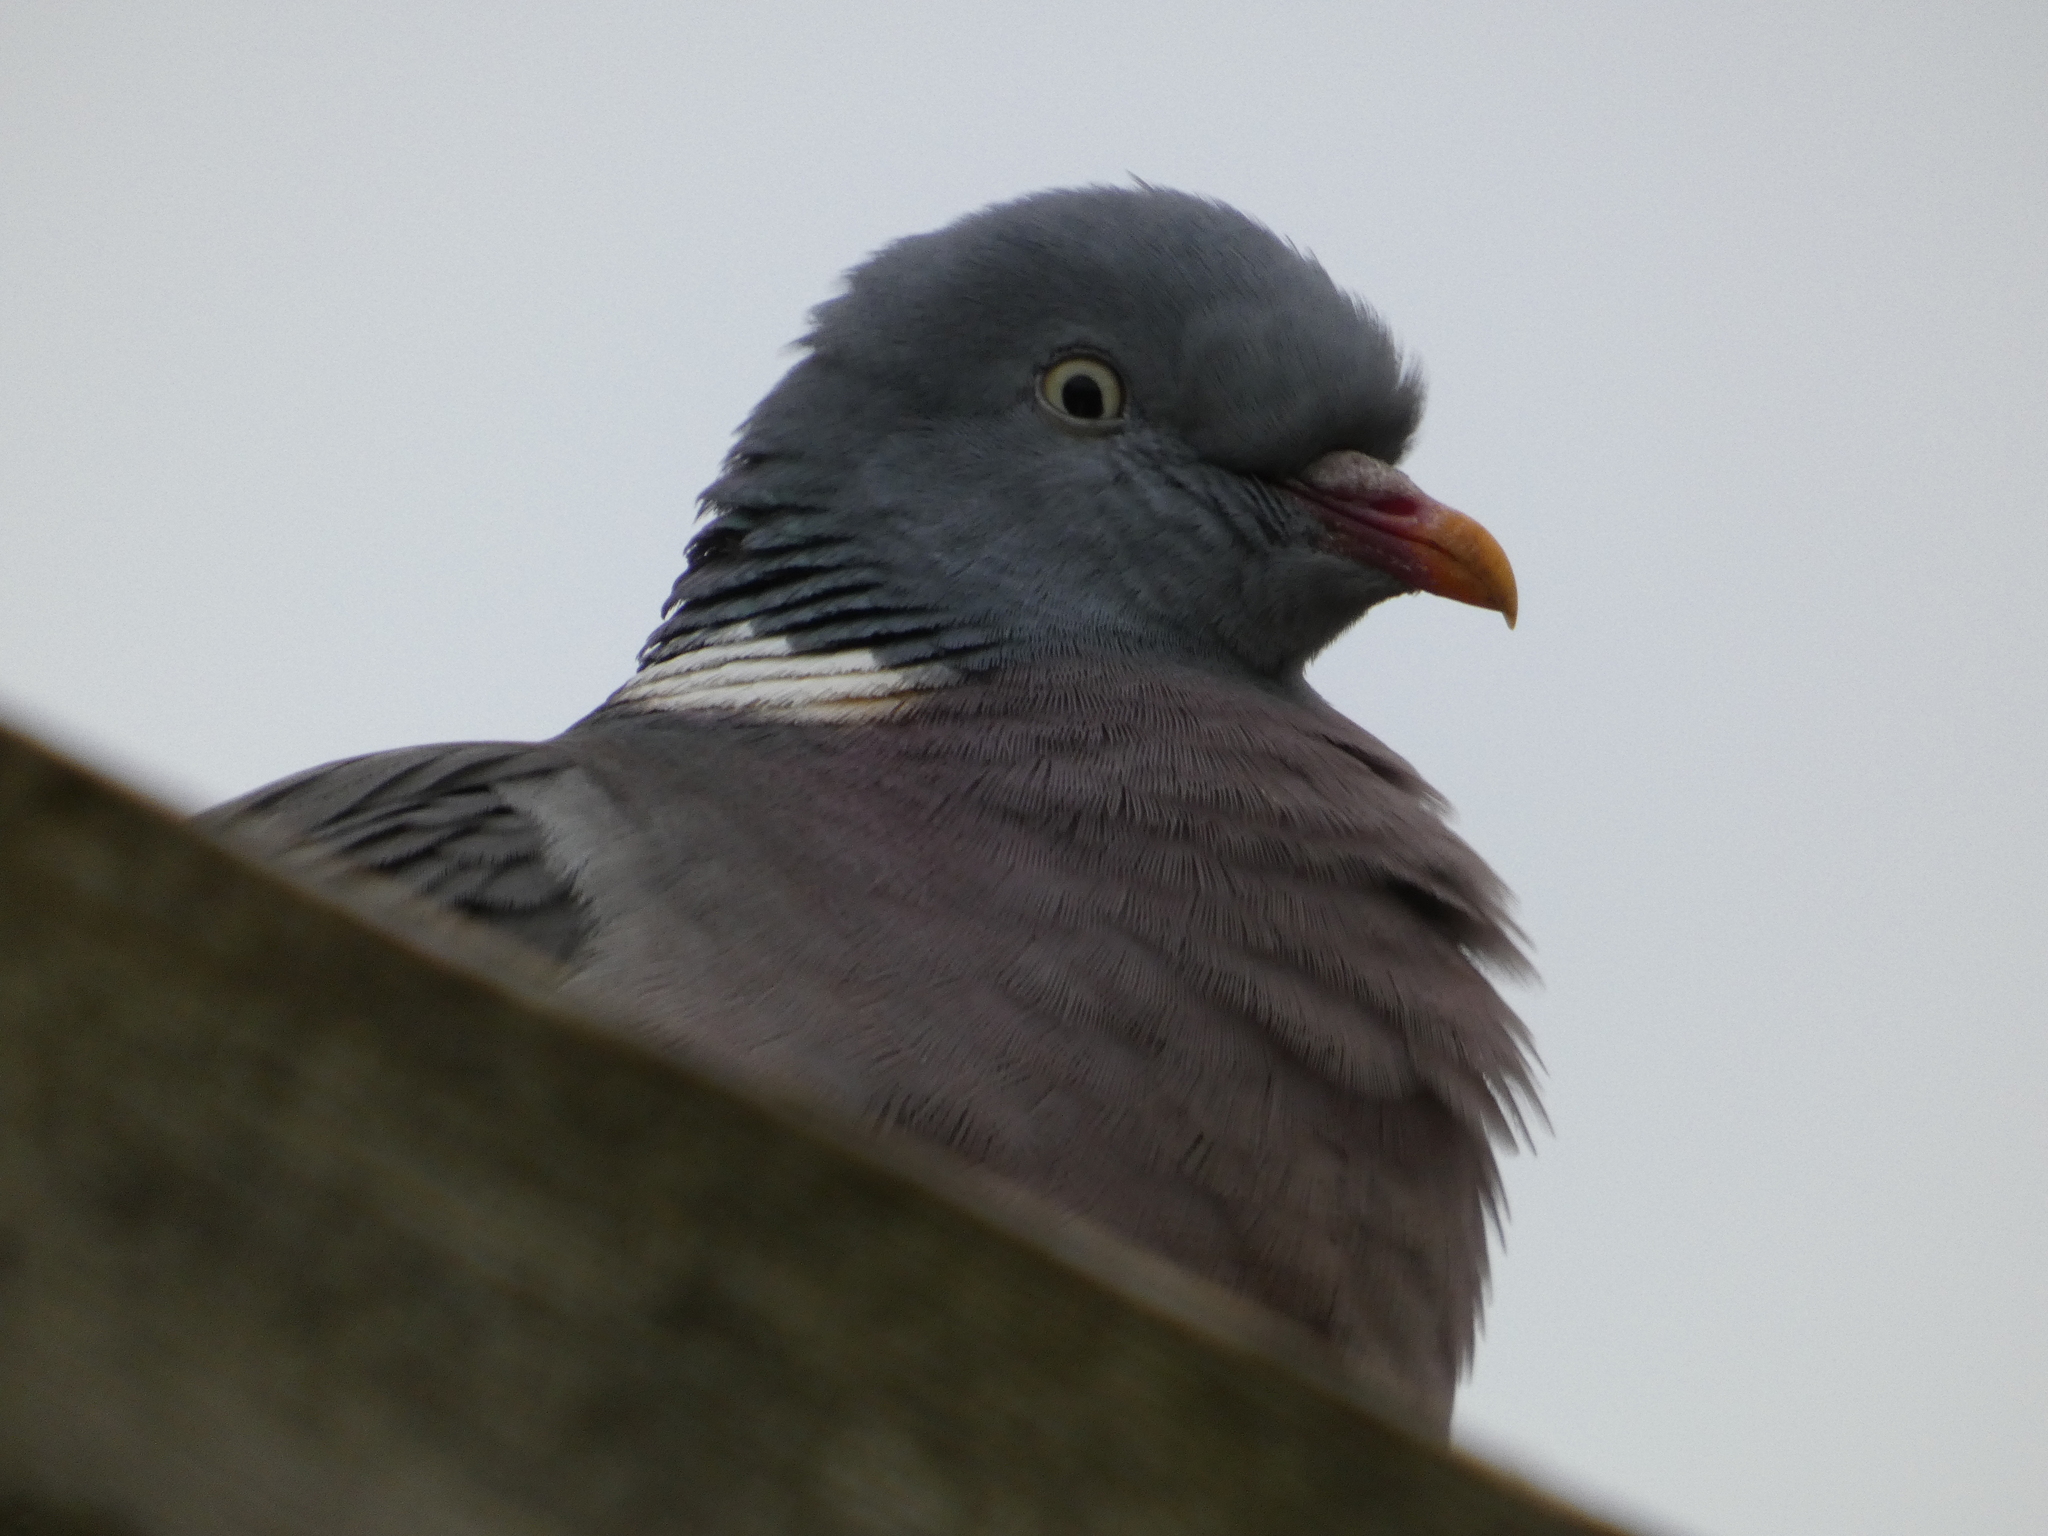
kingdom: Animalia
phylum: Chordata
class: Aves
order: Columbiformes
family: Columbidae
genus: Columba
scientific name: Columba palumbus
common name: Common wood pigeon
